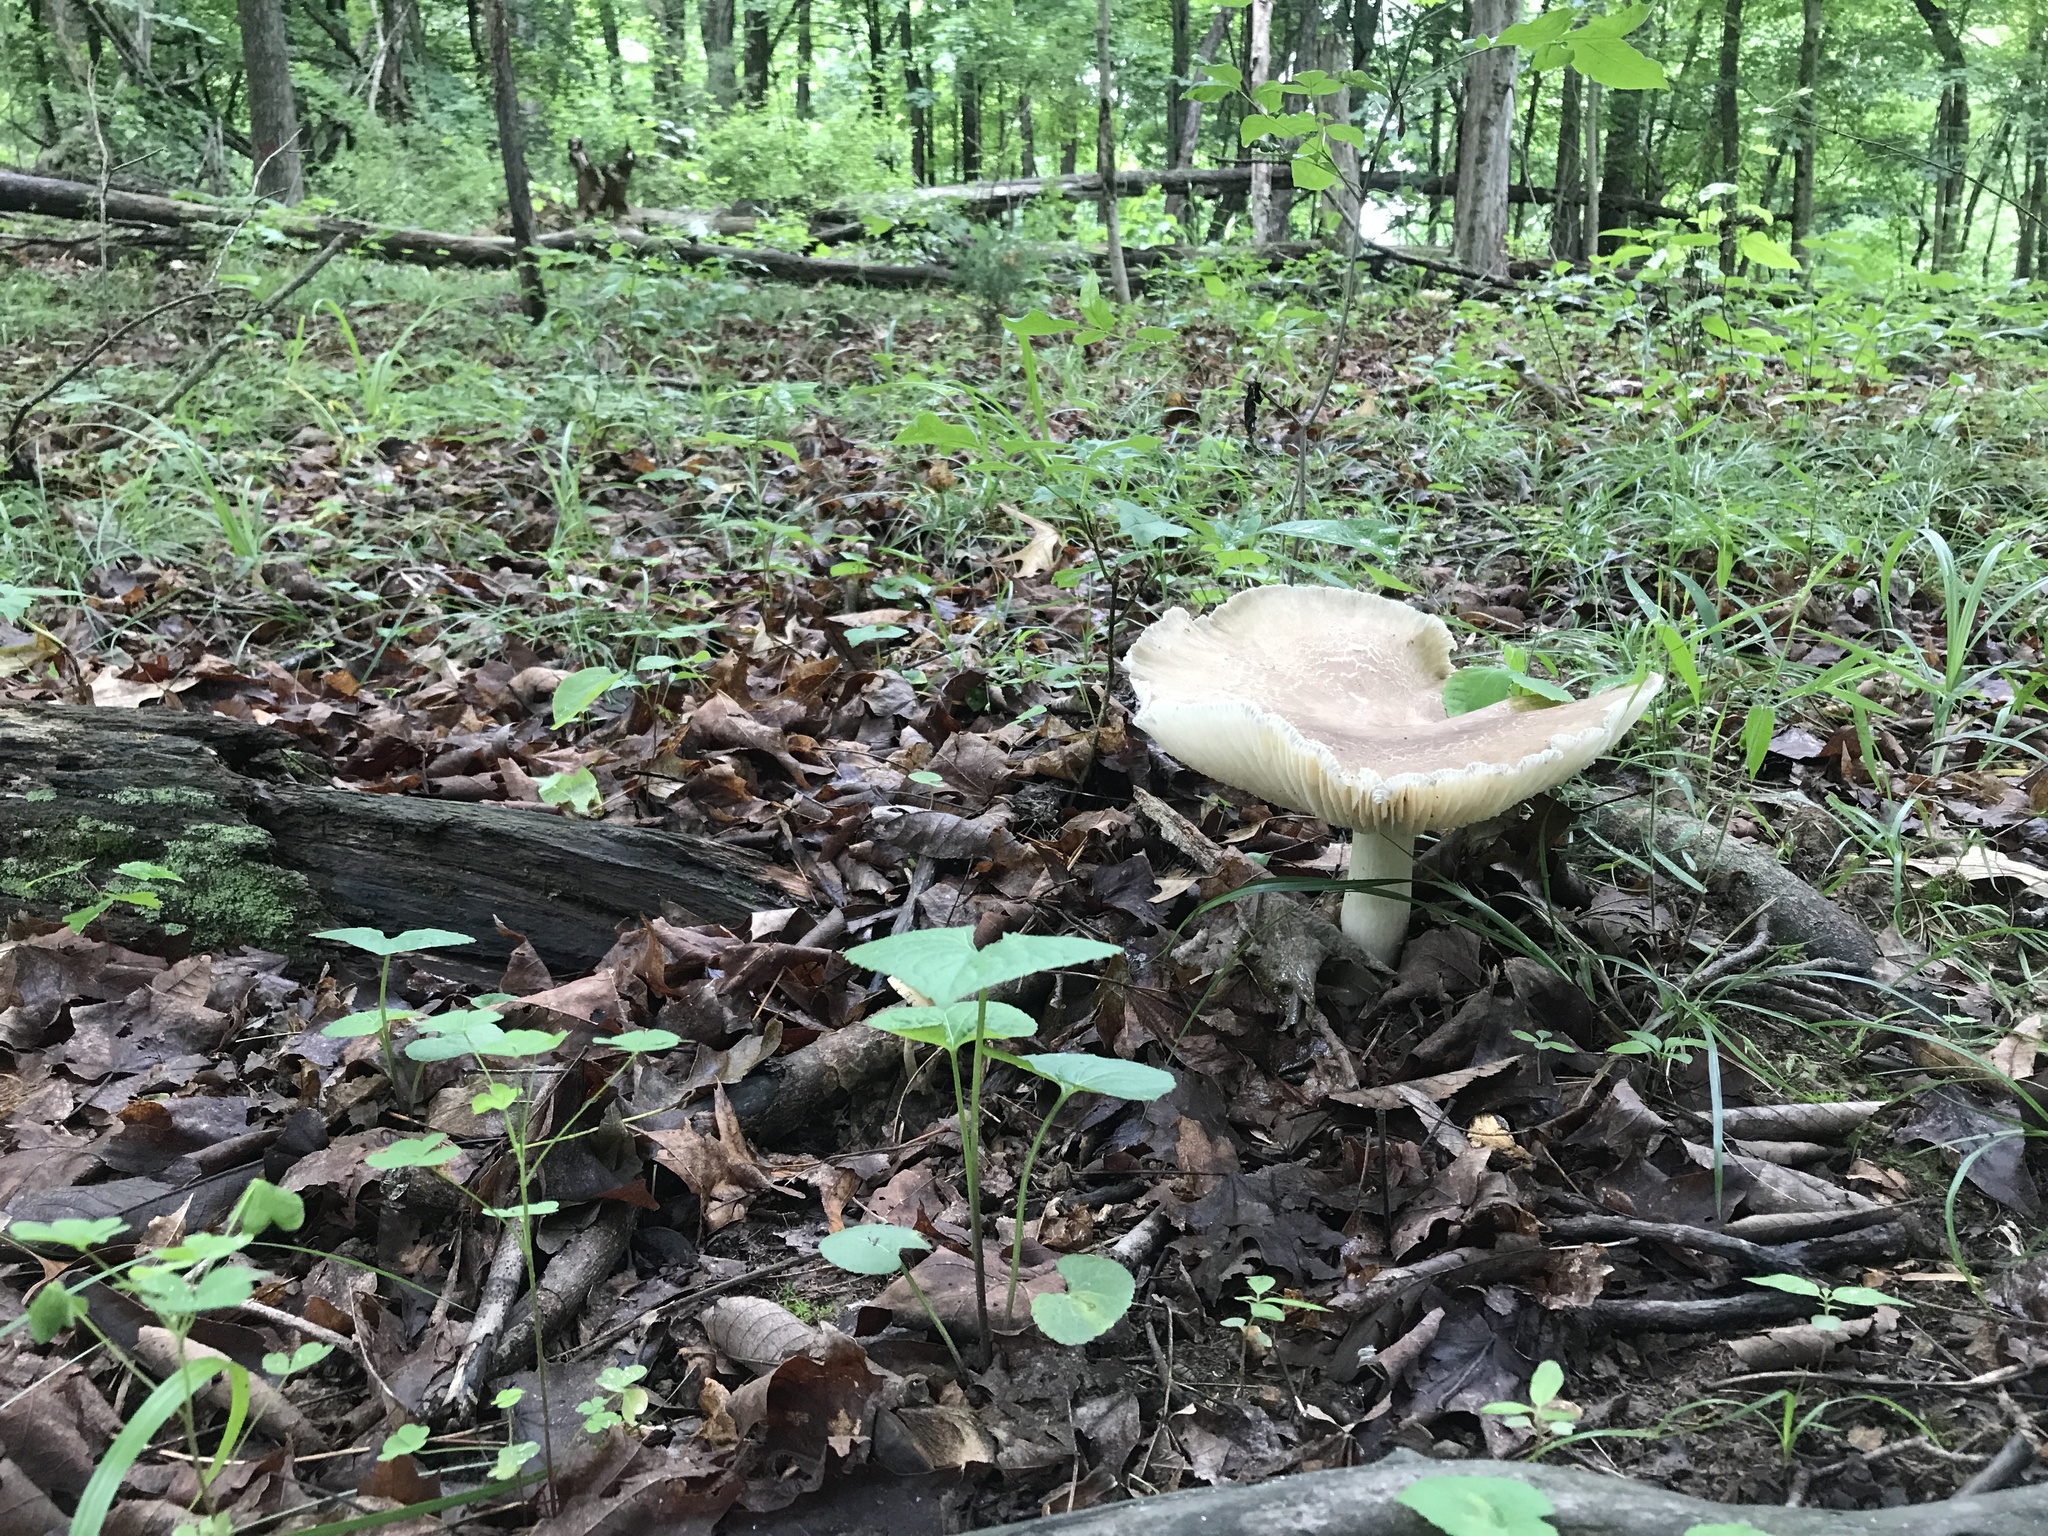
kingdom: Fungi
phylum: Basidiomycota
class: Agaricomycetes
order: Agaricales
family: Tricholomataceae
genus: Megacollybia
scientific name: Megacollybia rodmanii
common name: Eastern american platterful mushroom
